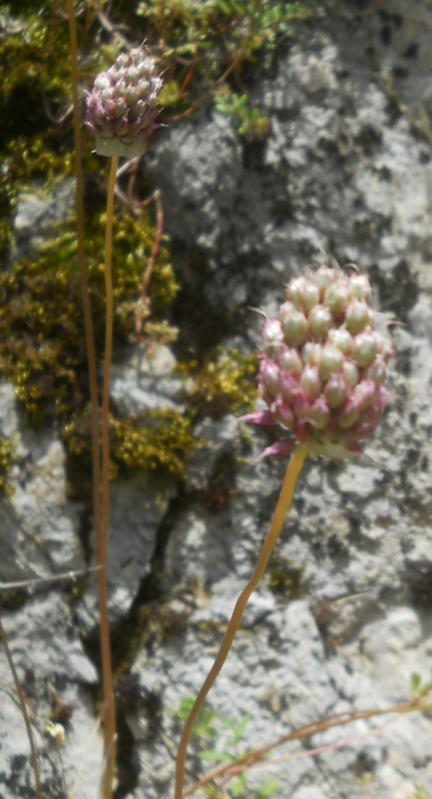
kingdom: Plantae
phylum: Tracheophyta
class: Liliopsida
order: Asparagales
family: Amaryllidaceae
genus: Allium
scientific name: Allium sphaerocephalon
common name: Round-headed leek
